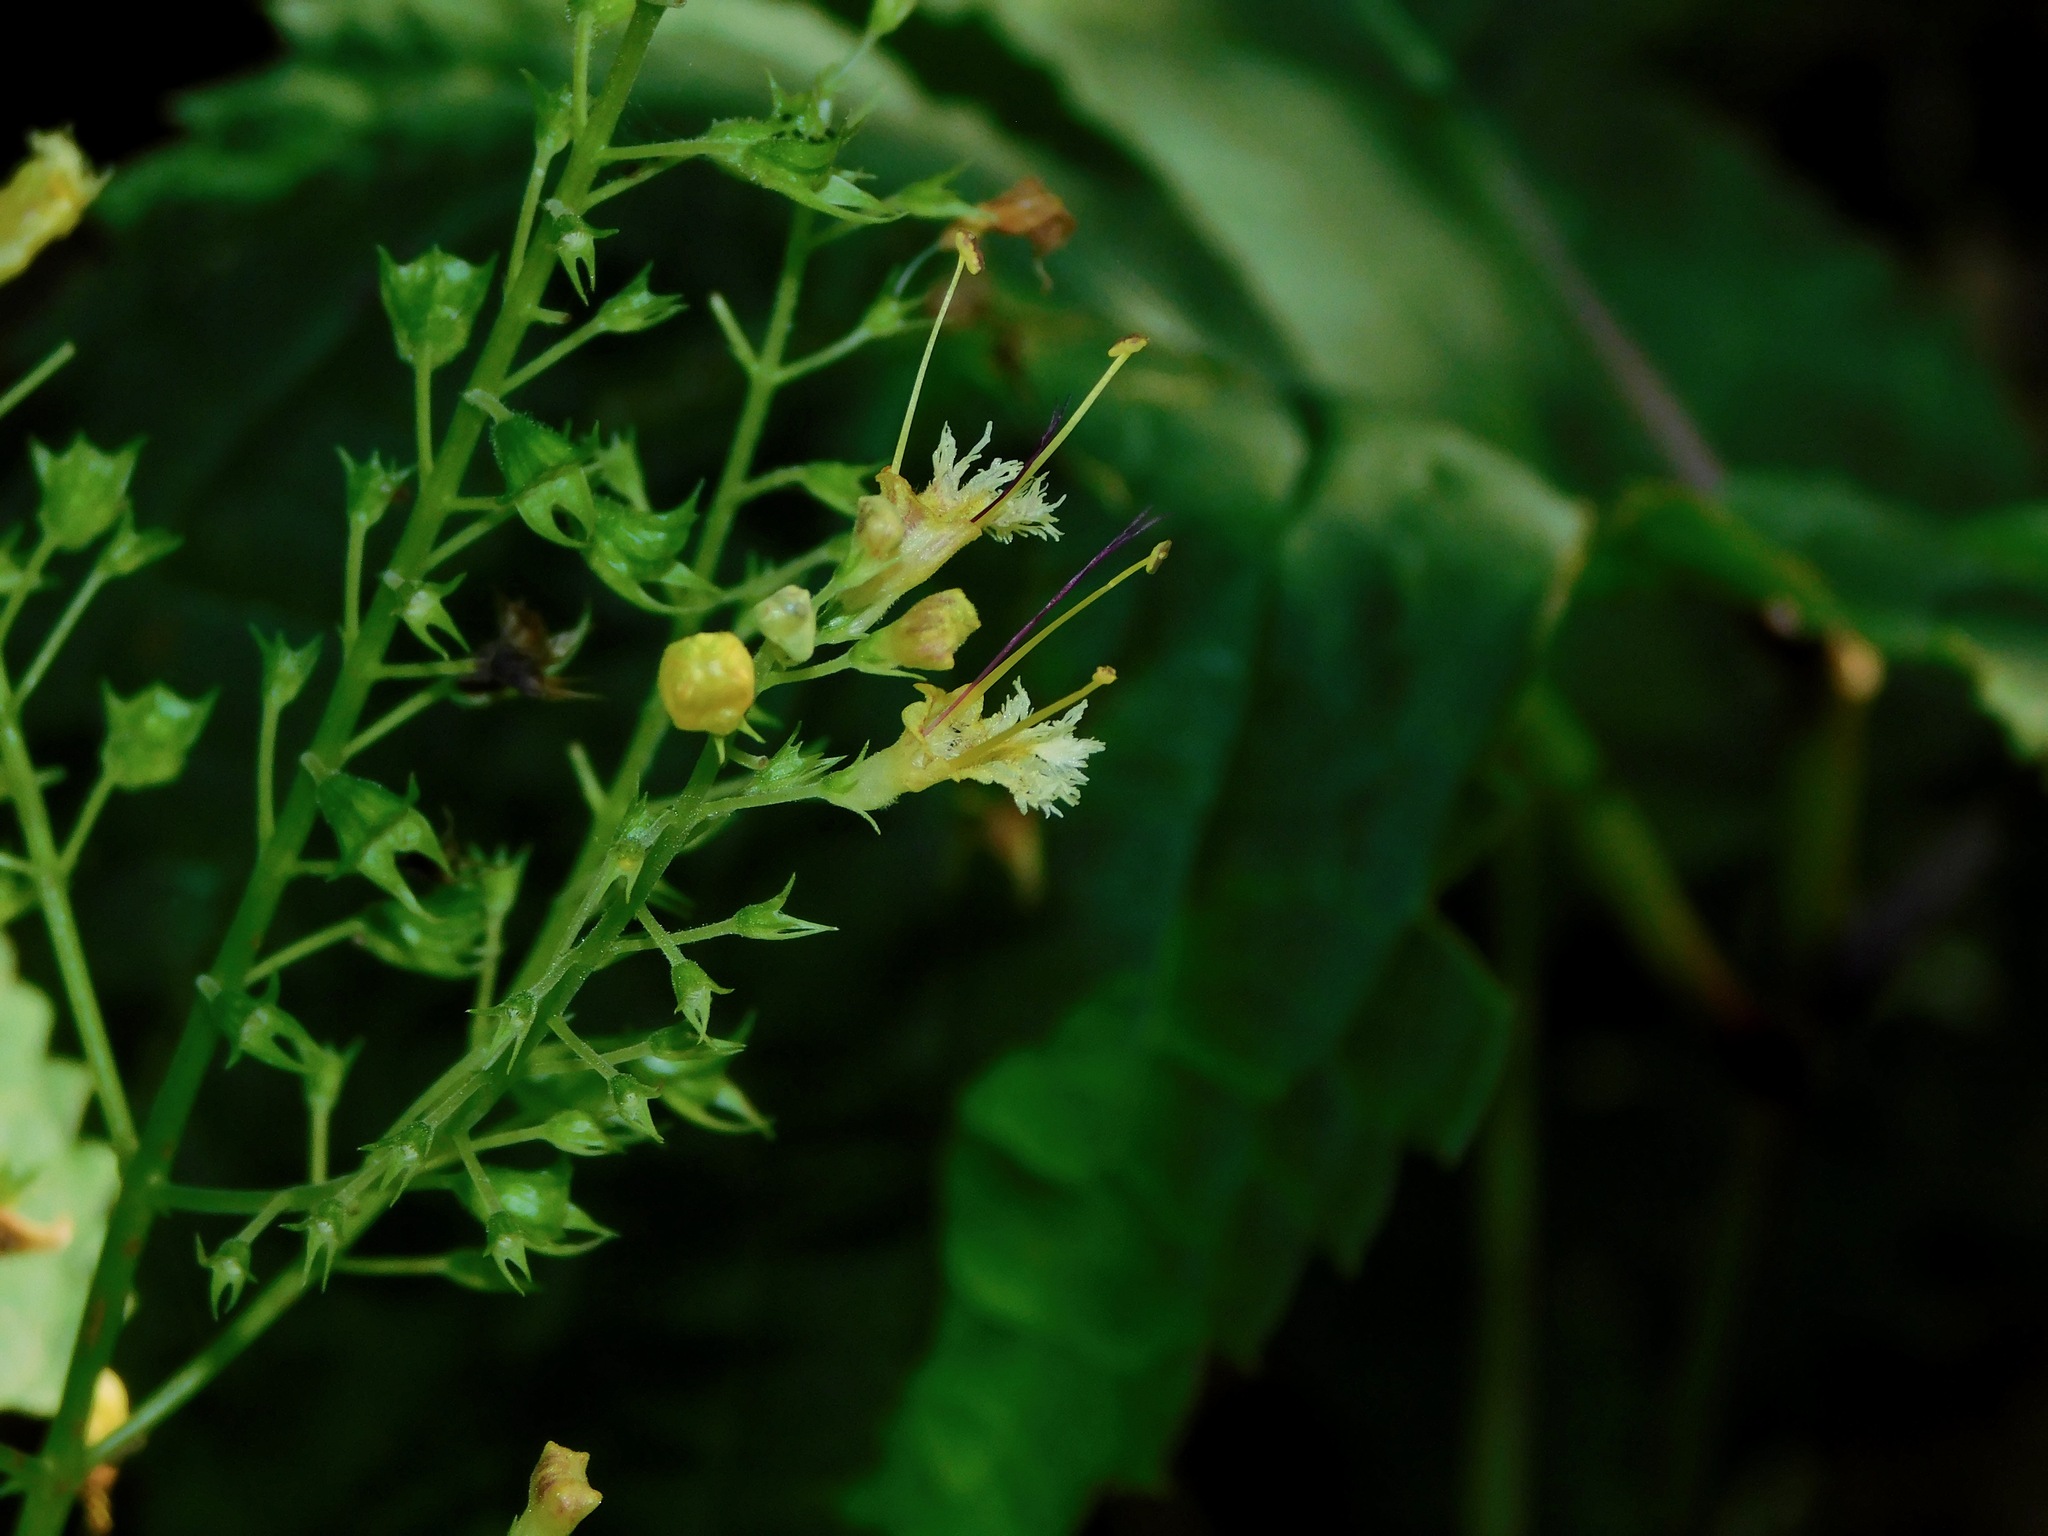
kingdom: Plantae
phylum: Tracheophyta
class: Magnoliopsida
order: Lamiales
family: Lamiaceae
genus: Collinsonia
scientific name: Collinsonia canadensis
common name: Northern horsebalm
